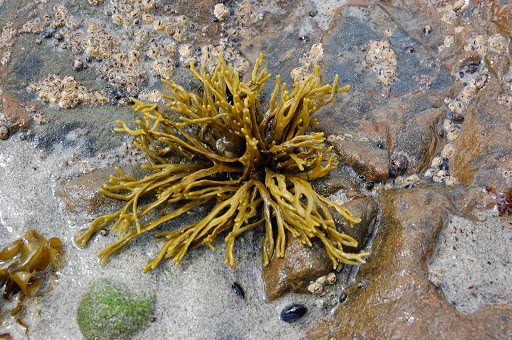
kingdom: Chromista
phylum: Ochrophyta
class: Phaeophyceae
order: Fucales
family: Fucaceae
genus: Silvetia
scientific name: Silvetia
